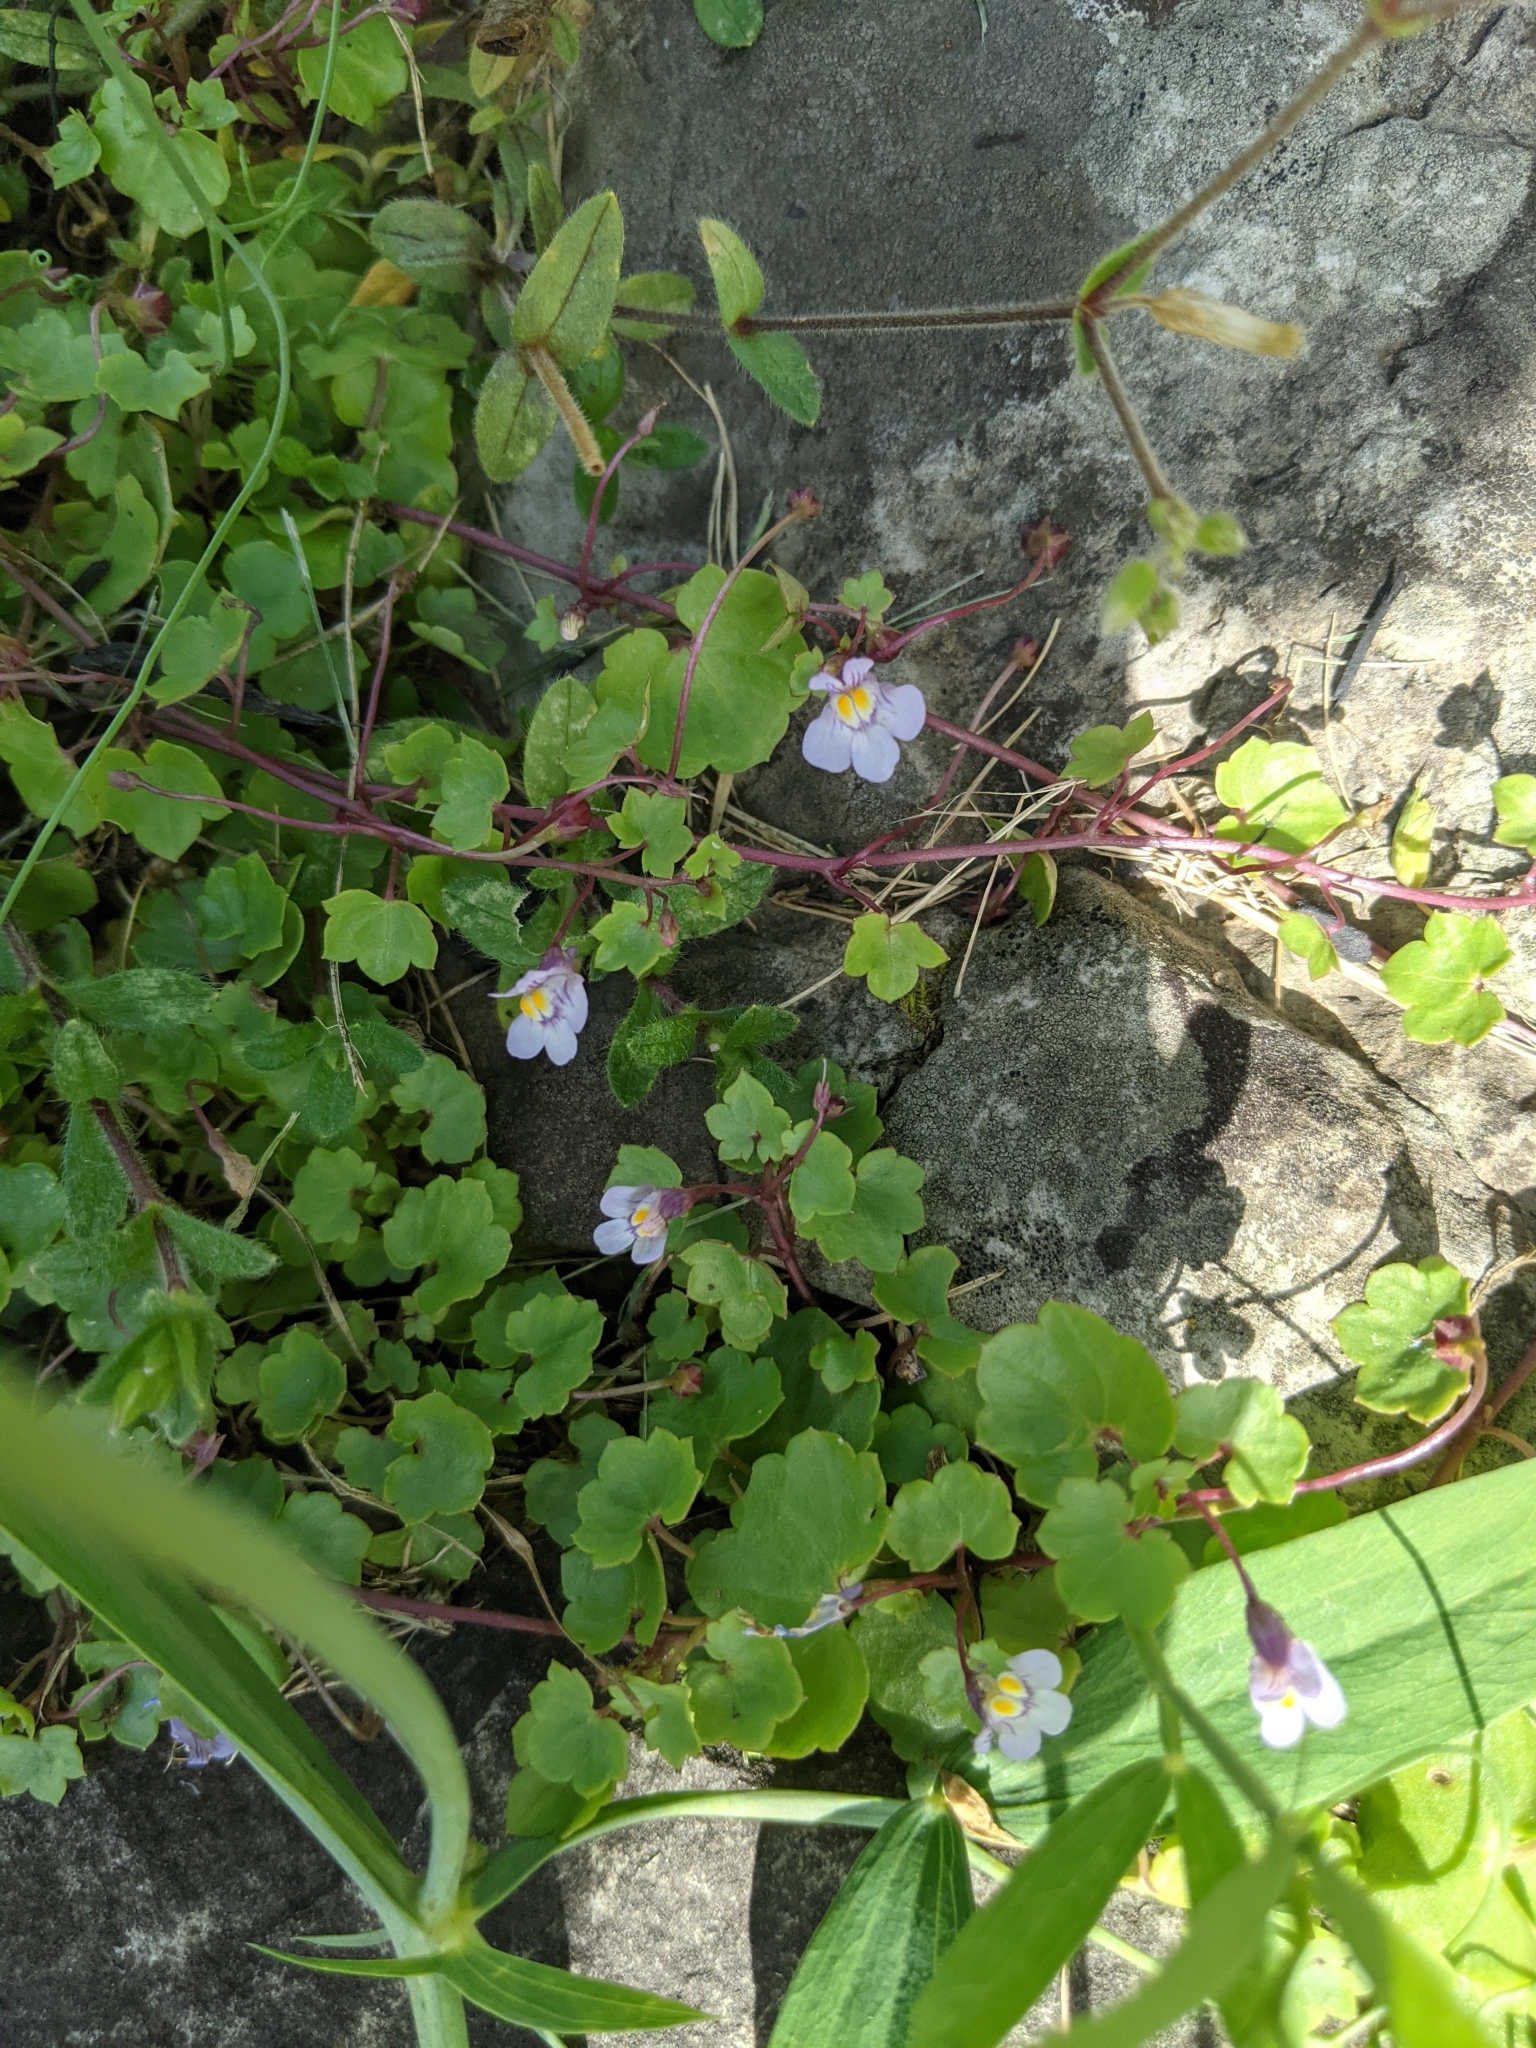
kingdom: Plantae
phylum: Tracheophyta
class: Magnoliopsida
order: Lamiales
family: Plantaginaceae
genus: Cymbalaria
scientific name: Cymbalaria muralis
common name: Ivy-leaved toadflax
